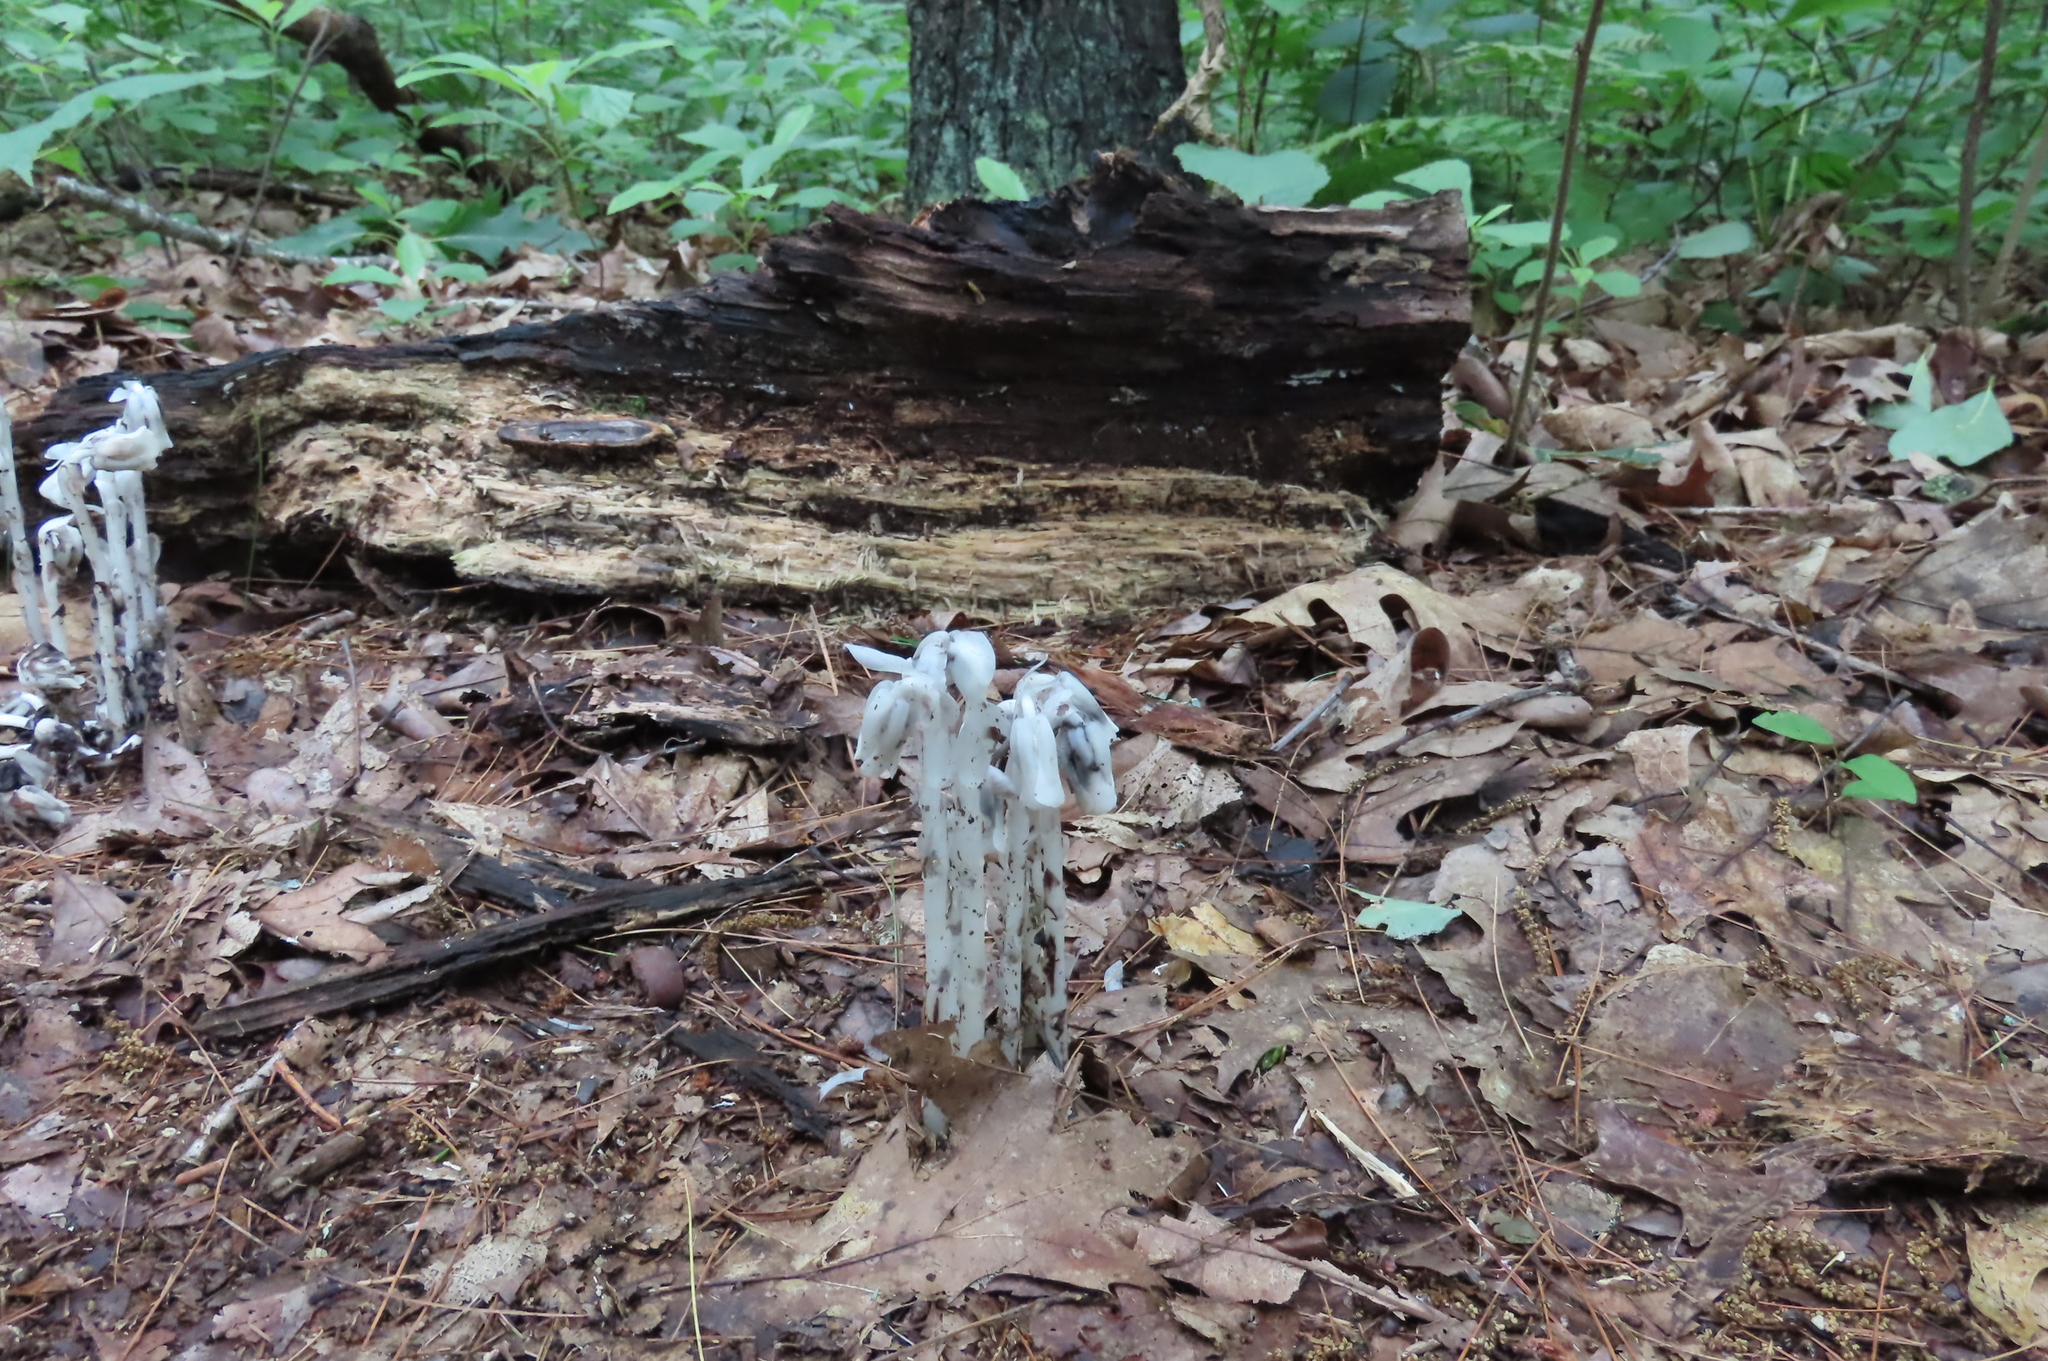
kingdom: Plantae
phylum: Tracheophyta
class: Magnoliopsida
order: Ericales
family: Ericaceae
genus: Monotropa
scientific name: Monotropa uniflora
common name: Convulsion root
